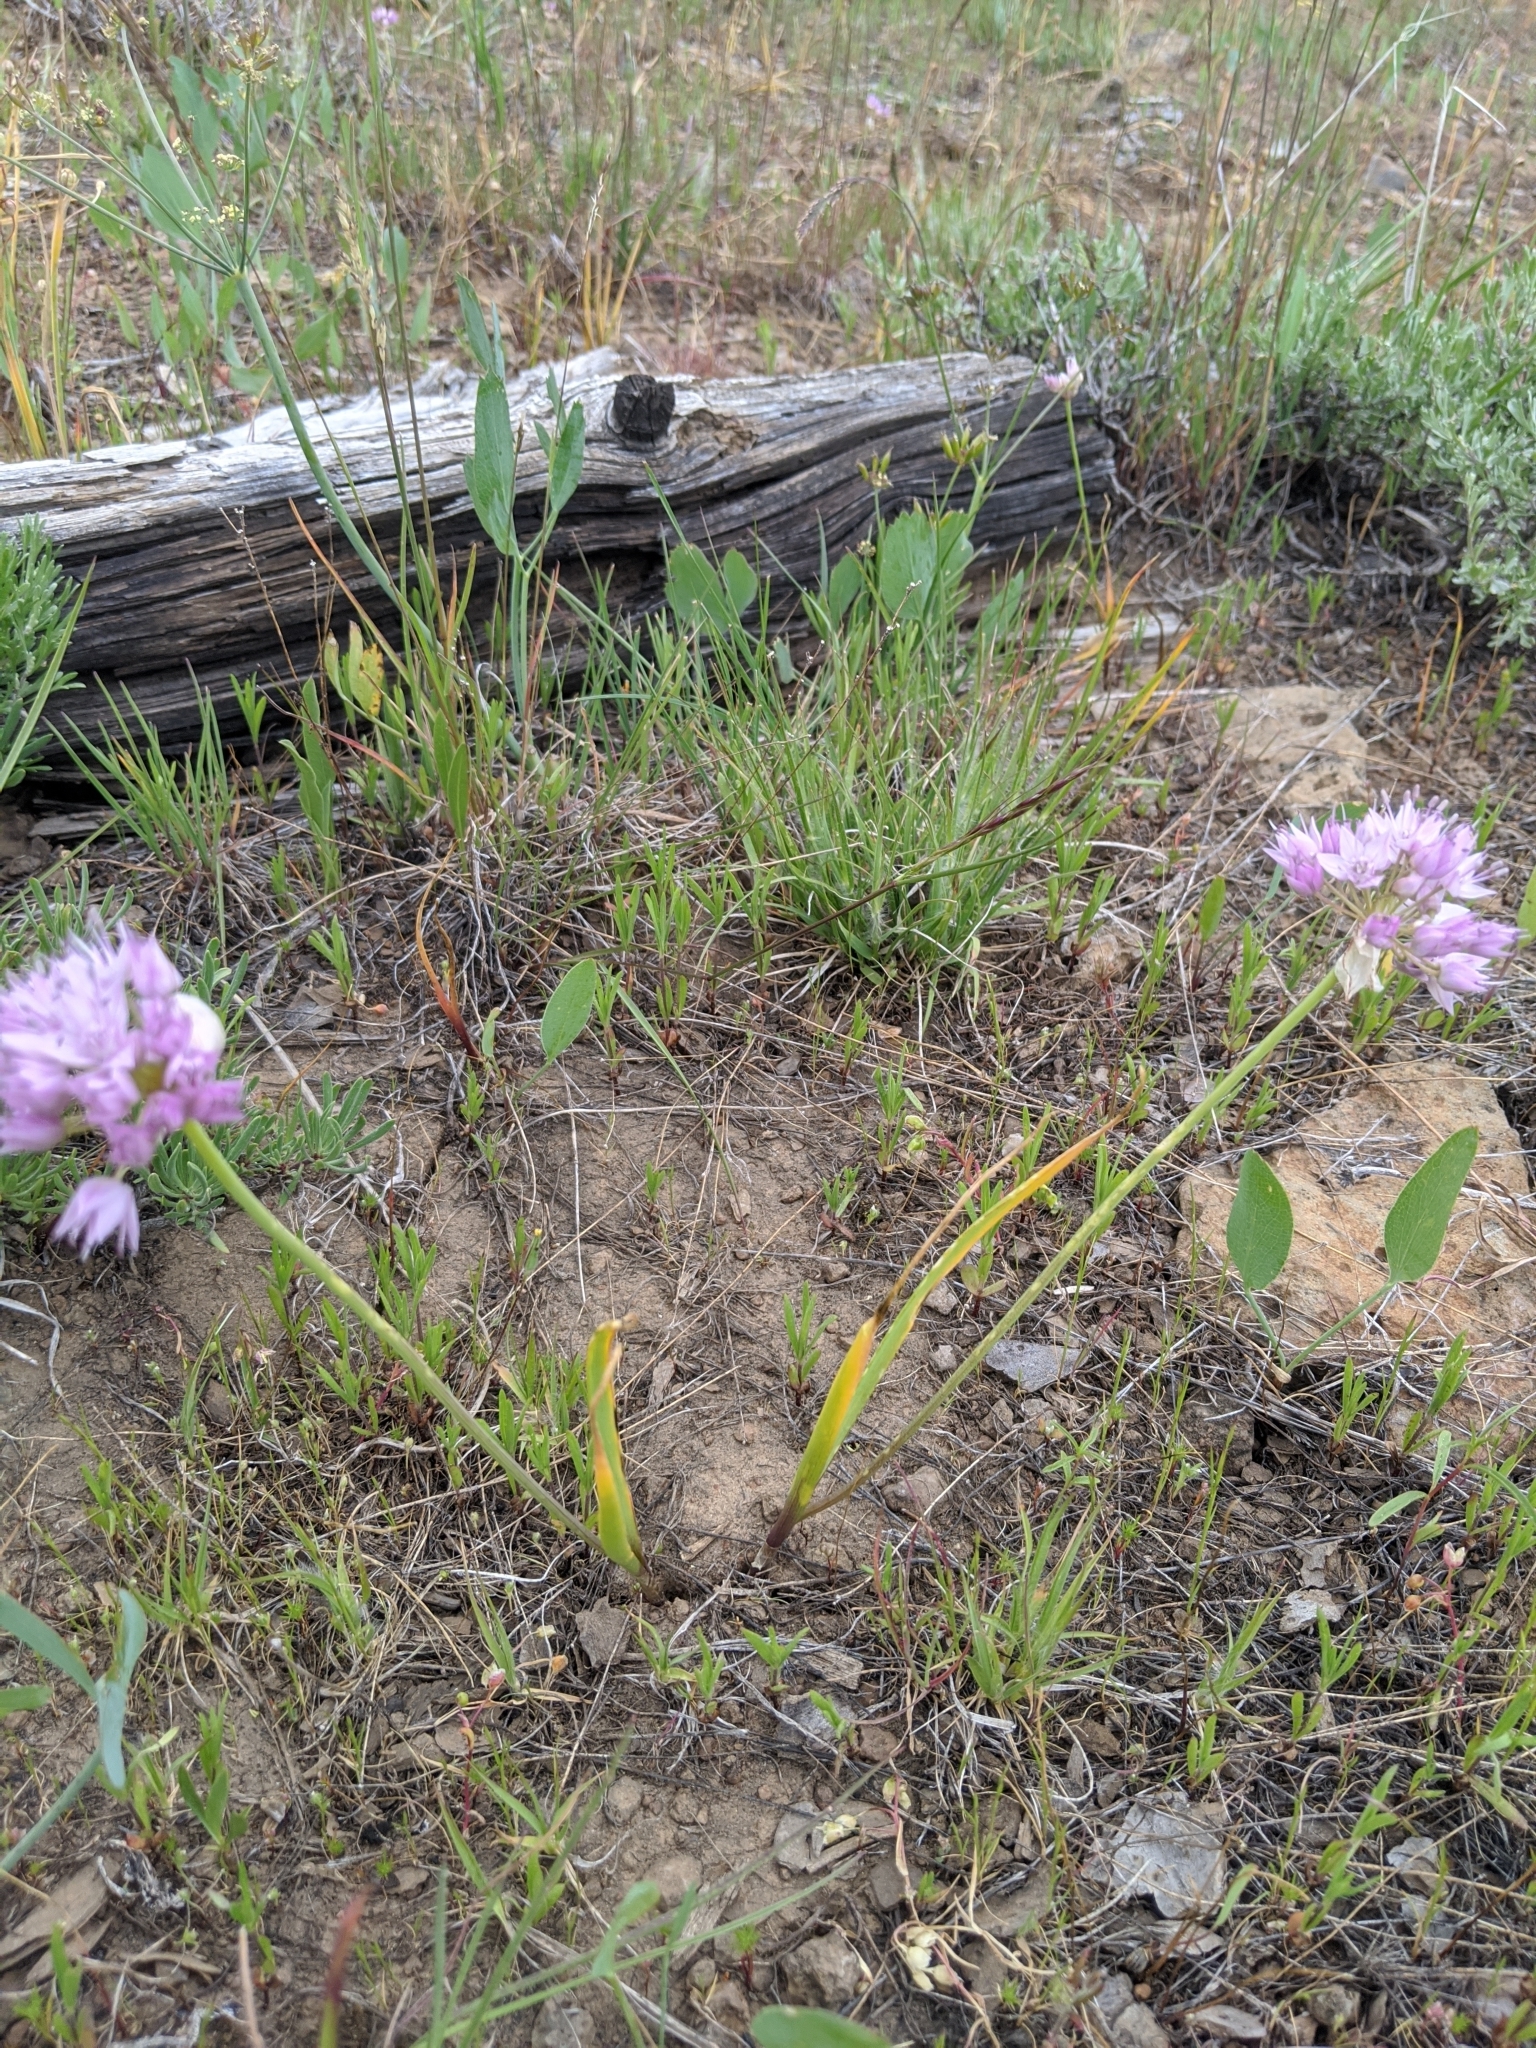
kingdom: Plantae
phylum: Tracheophyta
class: Liliopsida
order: Asparagales
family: Amaryllidaceae
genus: Allium
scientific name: Allium nevii
